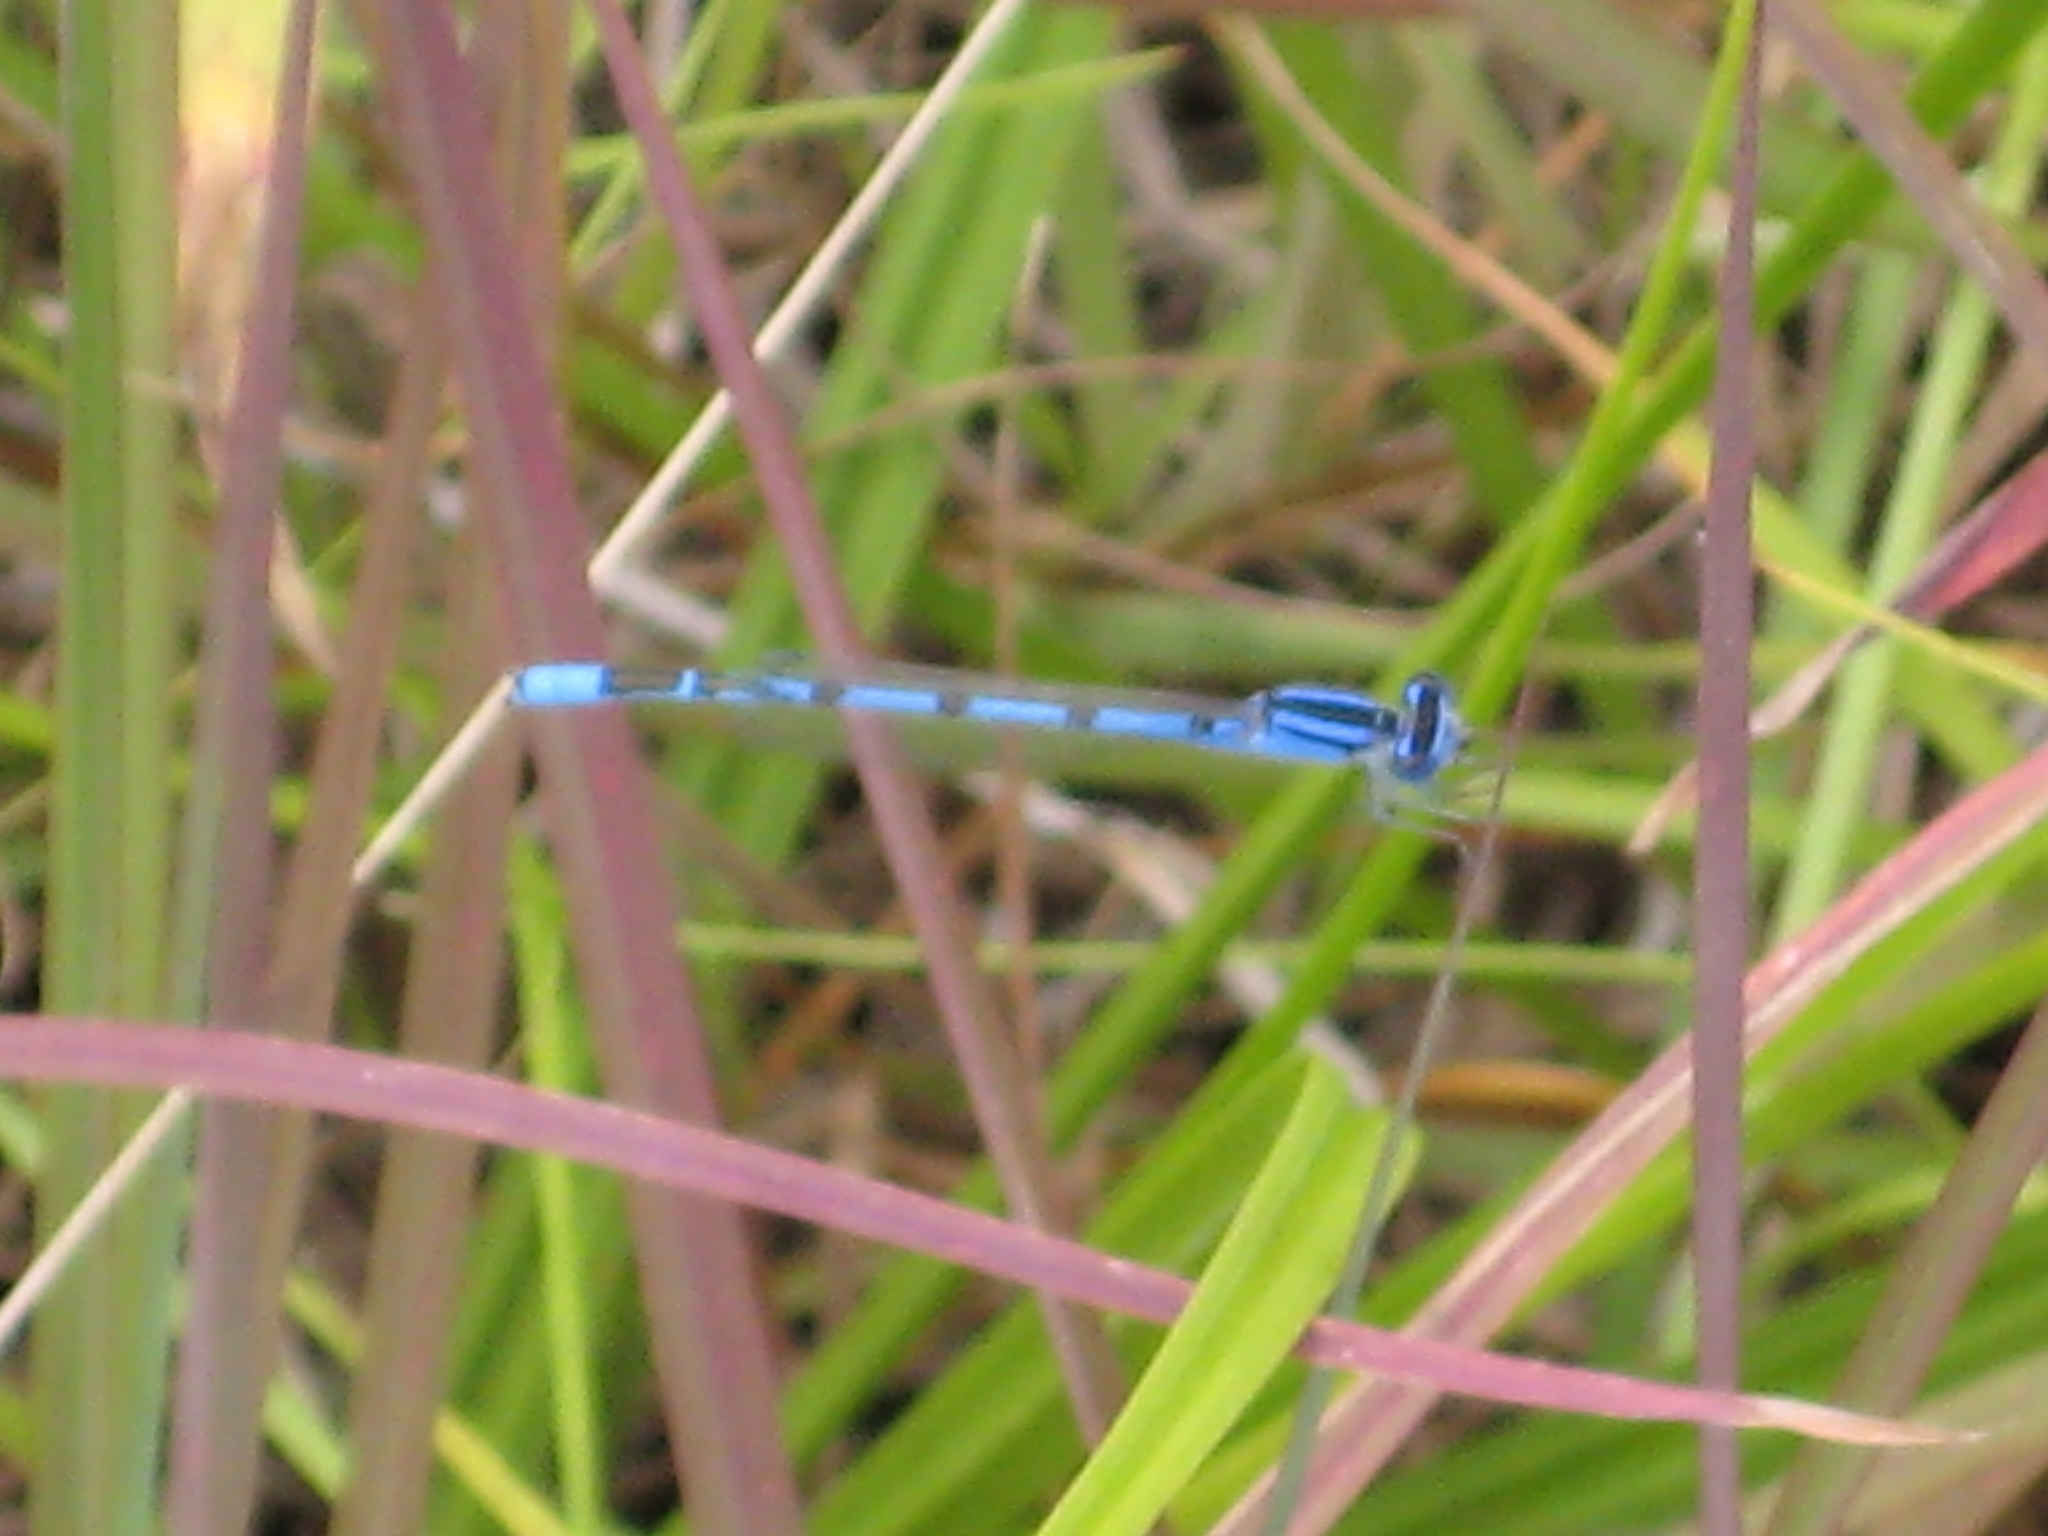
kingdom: Animalia
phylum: Arthropoda
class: Insecta
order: Odonata
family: Coenagrionidae
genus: Enallagma
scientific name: Enallagma civile
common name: Damselfly
